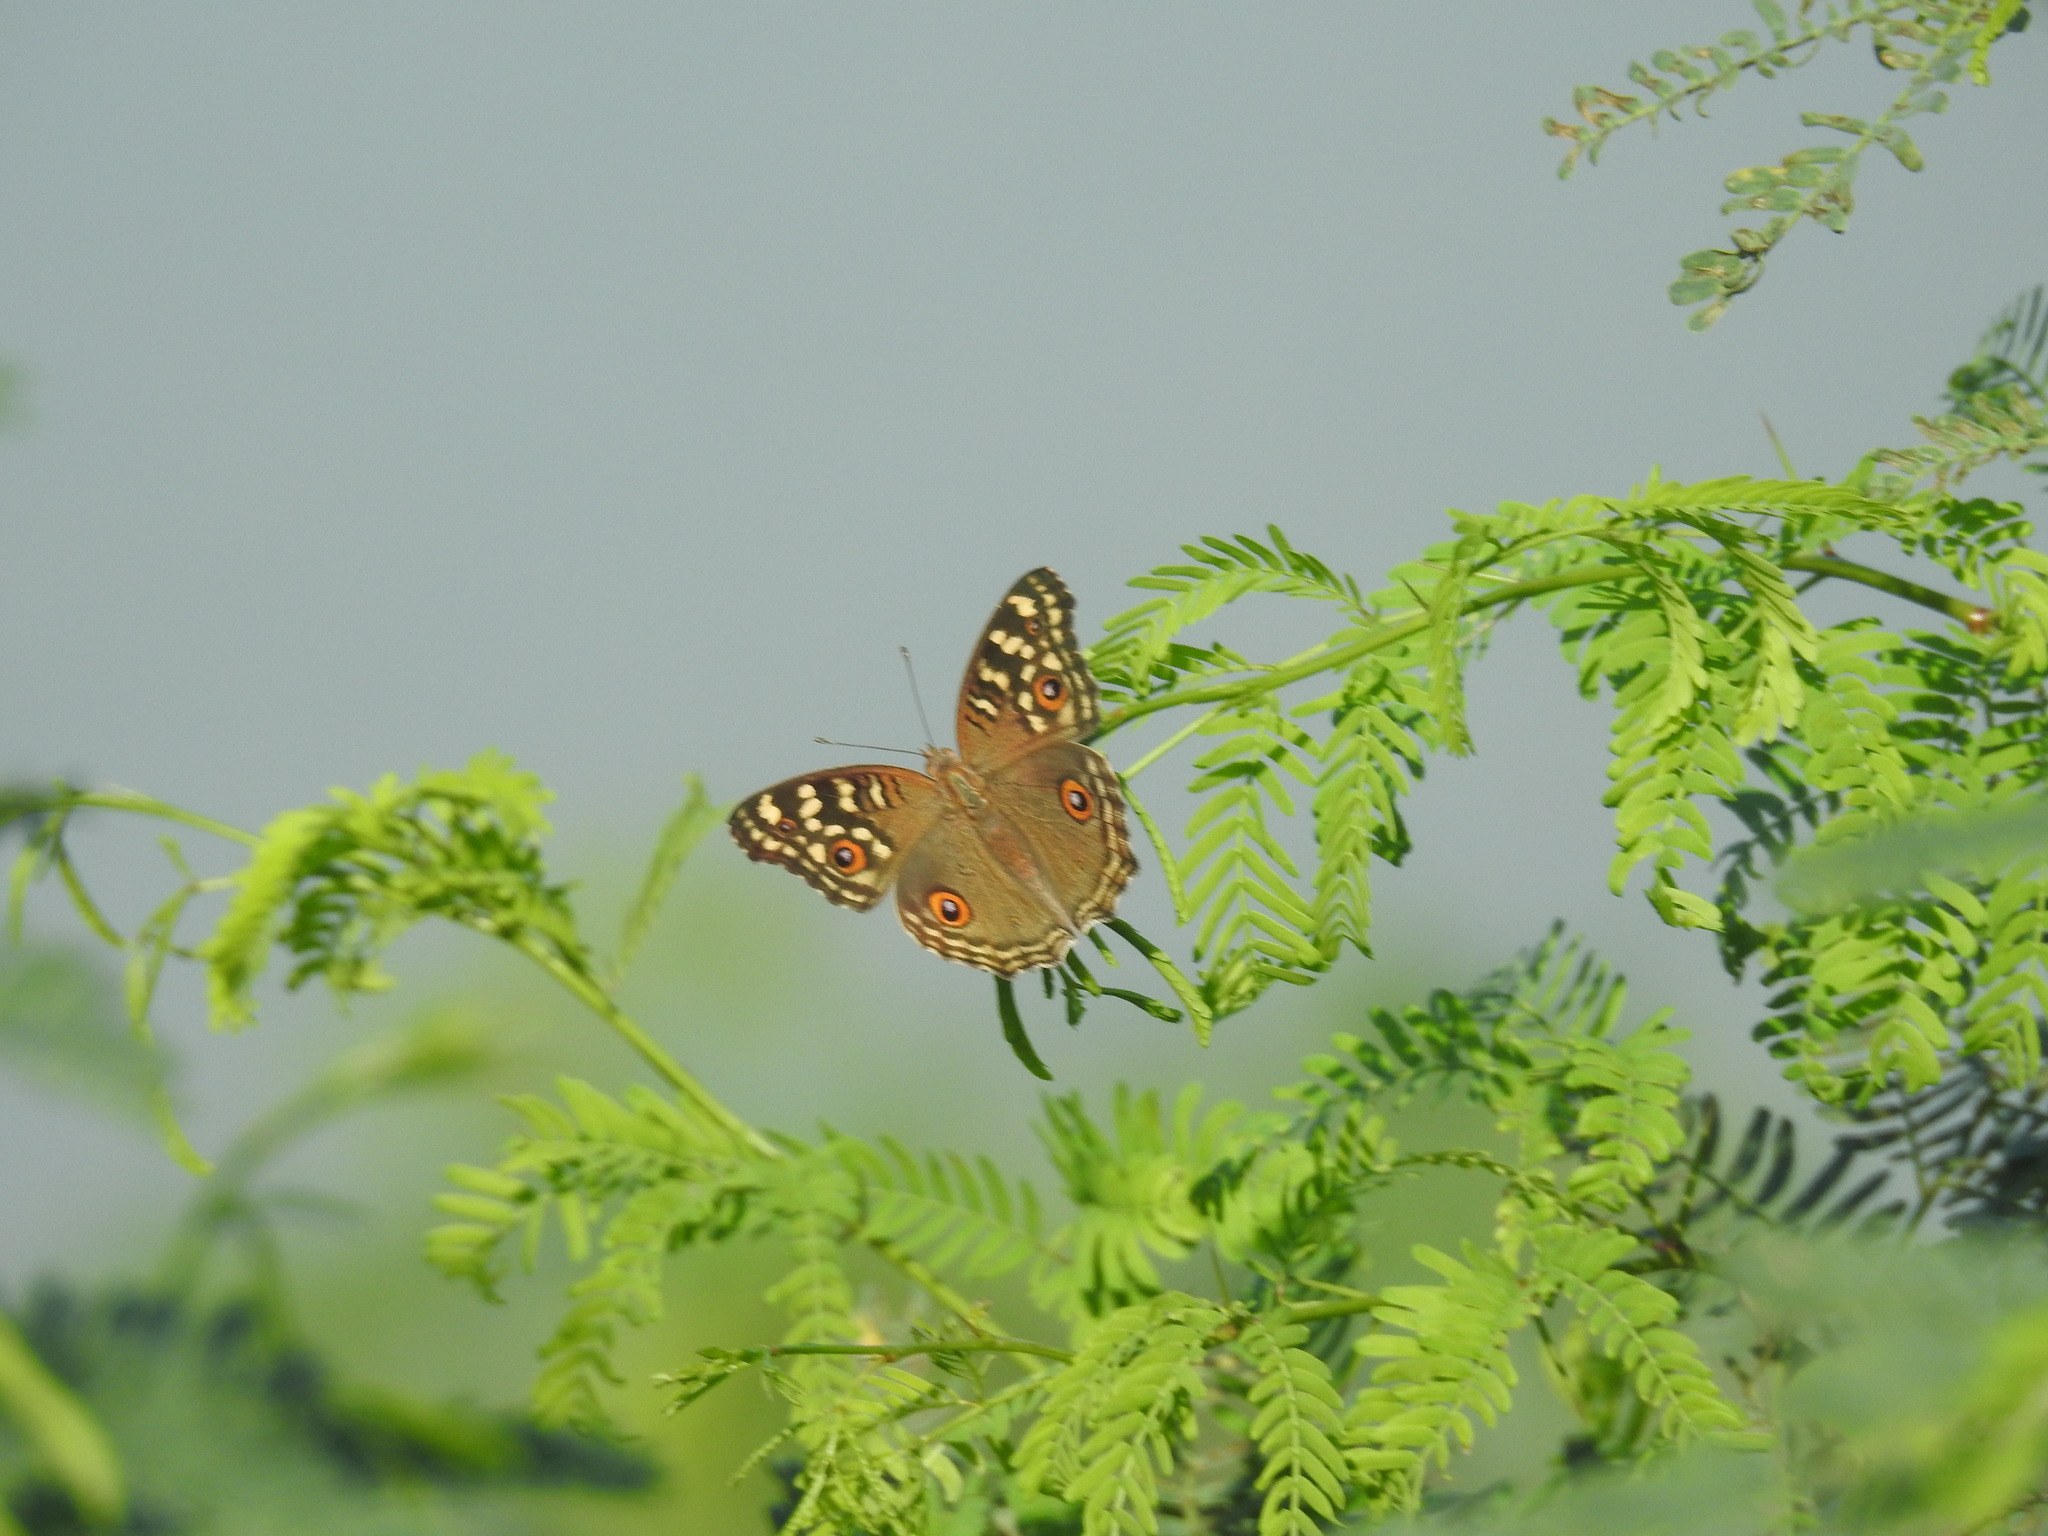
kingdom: Animalia
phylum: Arthropoda
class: Insecta
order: Lepidoptera
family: Nymphalidae
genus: Junonia
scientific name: Junonia lemonias
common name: Lemon pansy
